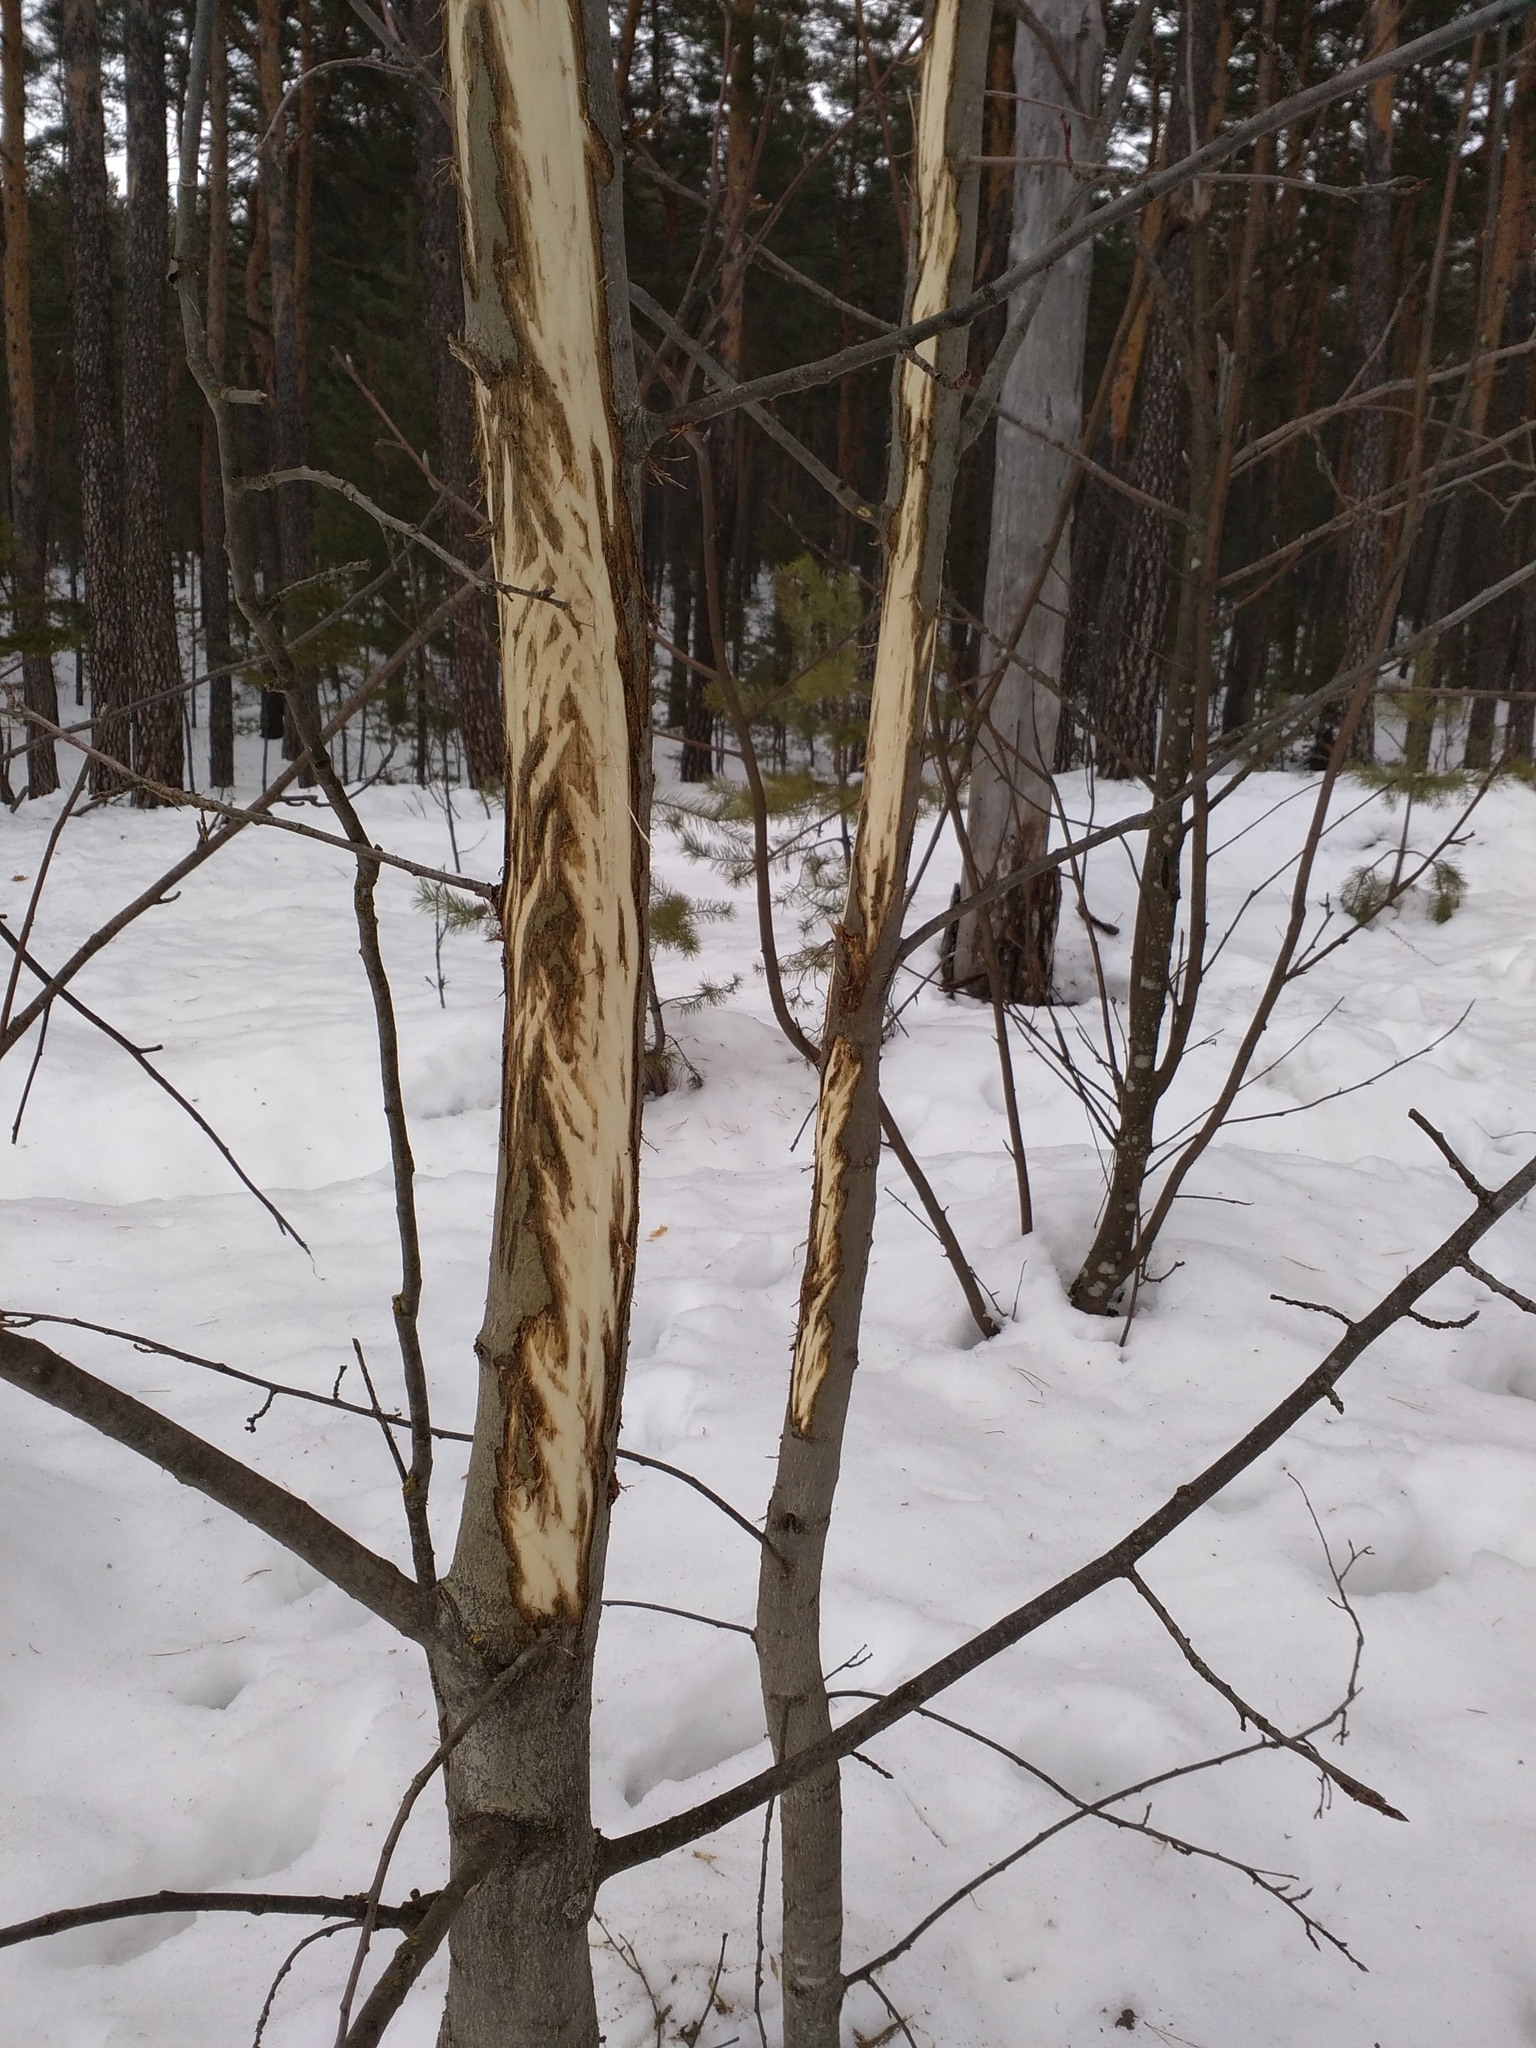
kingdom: Animalia
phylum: Chordata
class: Mammalia
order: Artiodactyla
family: Cervidae
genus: Alces
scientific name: Alces alces
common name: Moose
